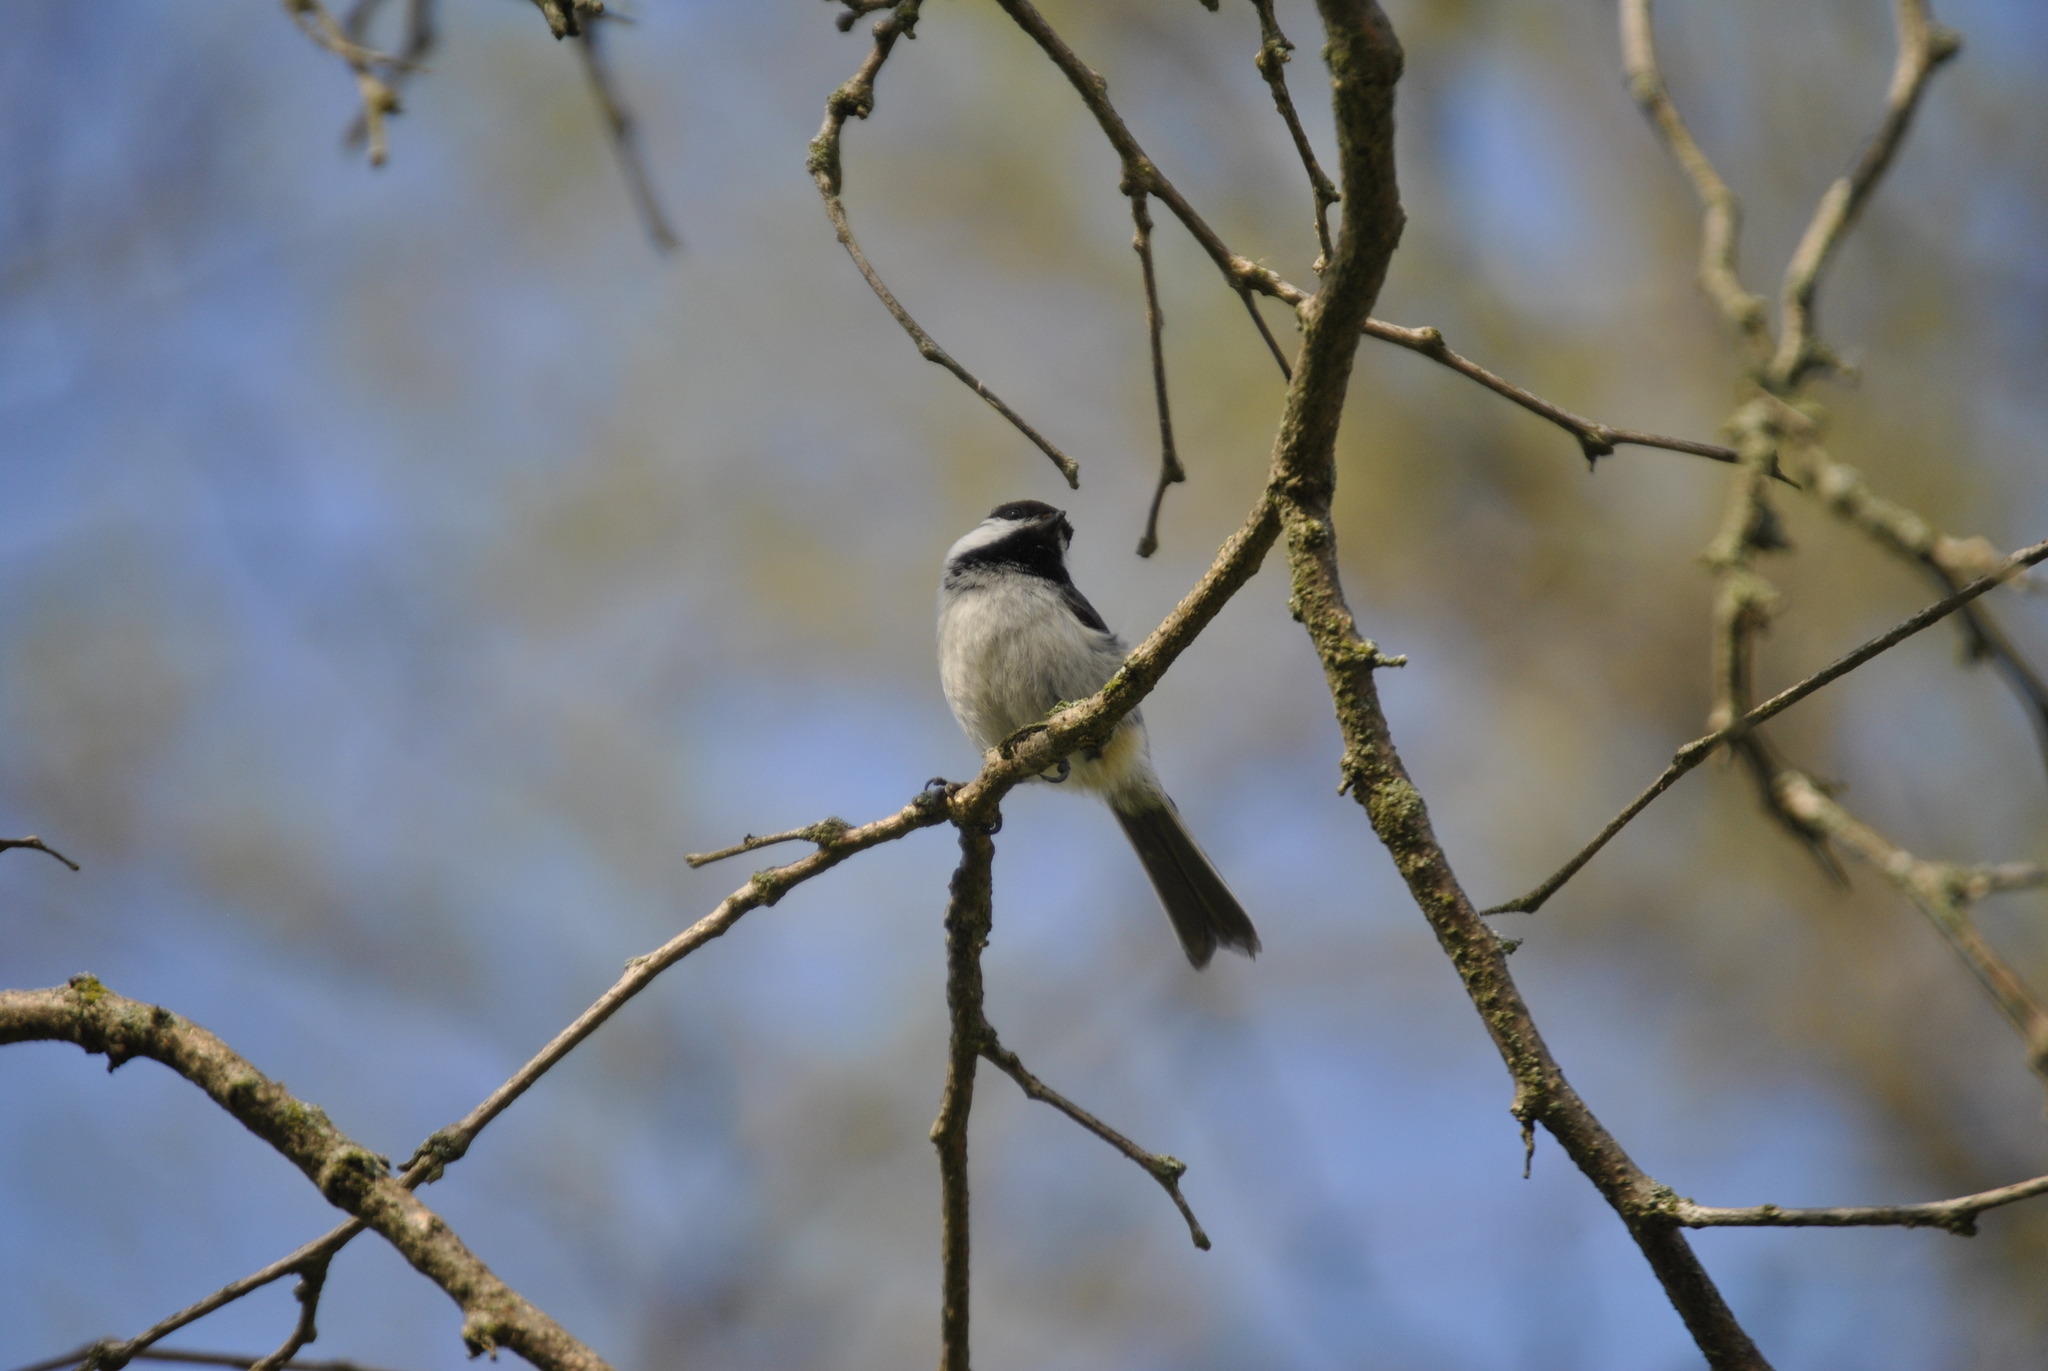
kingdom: Animalia
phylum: Chordata
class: Aves
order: Passeriformes
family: Paridae
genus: Poecile
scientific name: Poecile atricapillus
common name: Black-capped chickadee
